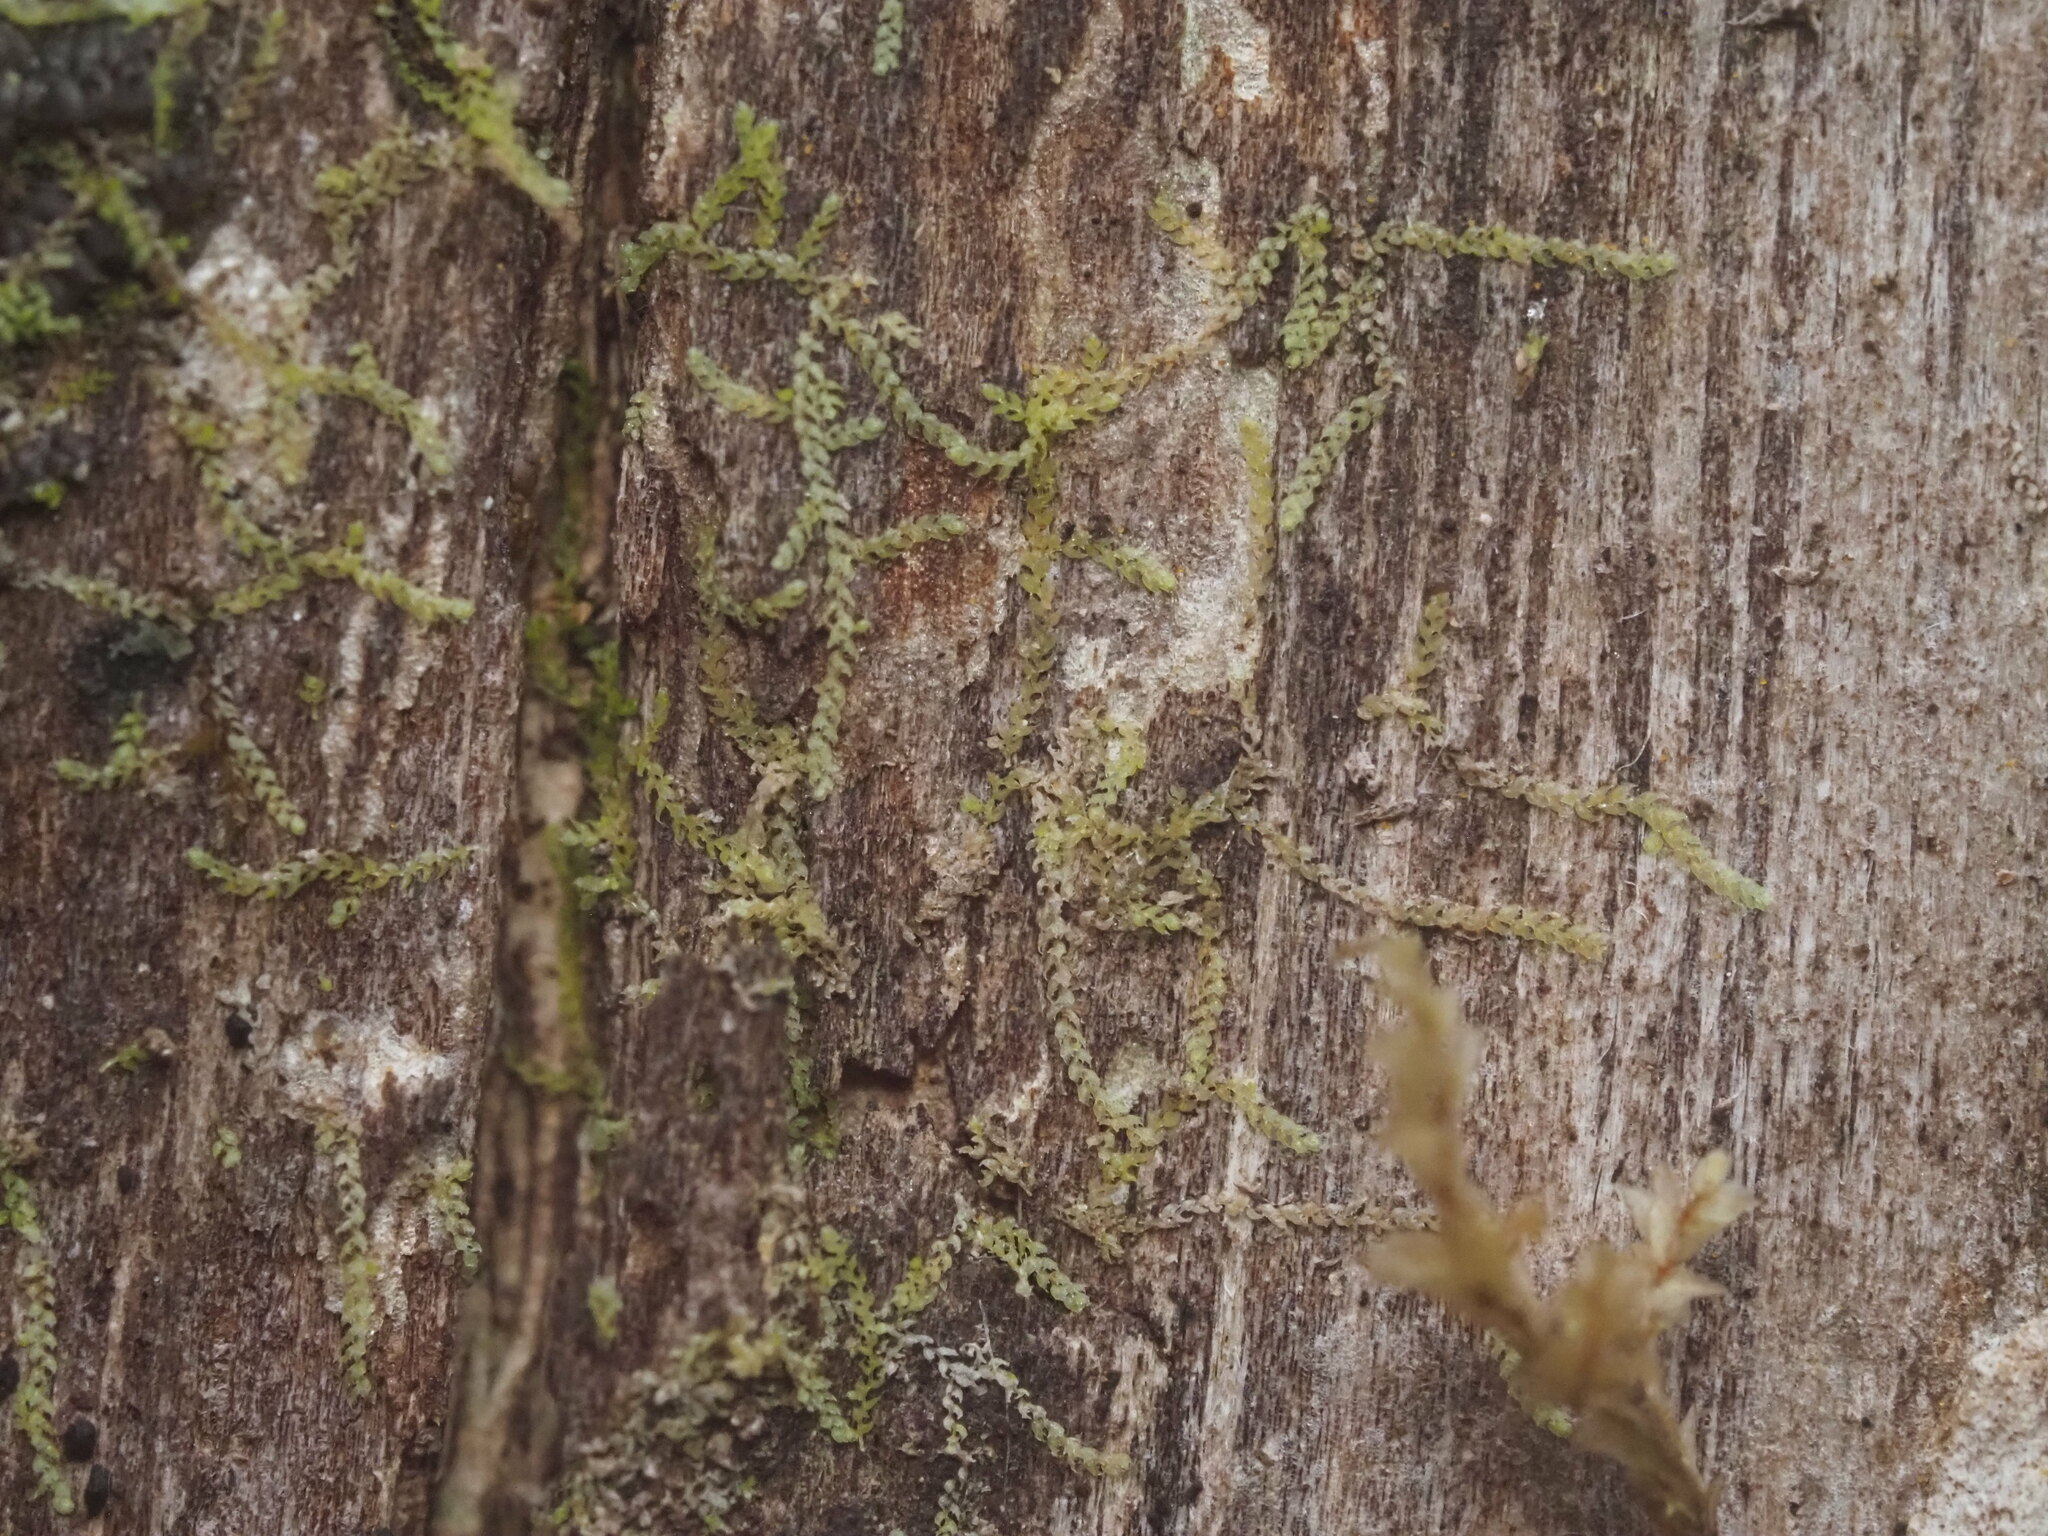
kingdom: Plantae
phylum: Marchantiophyta
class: Jungermanniopsida
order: Porellales
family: Lejeuneaceae
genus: Drepanolejeunea
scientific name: Drepanolejeunea ungulata
